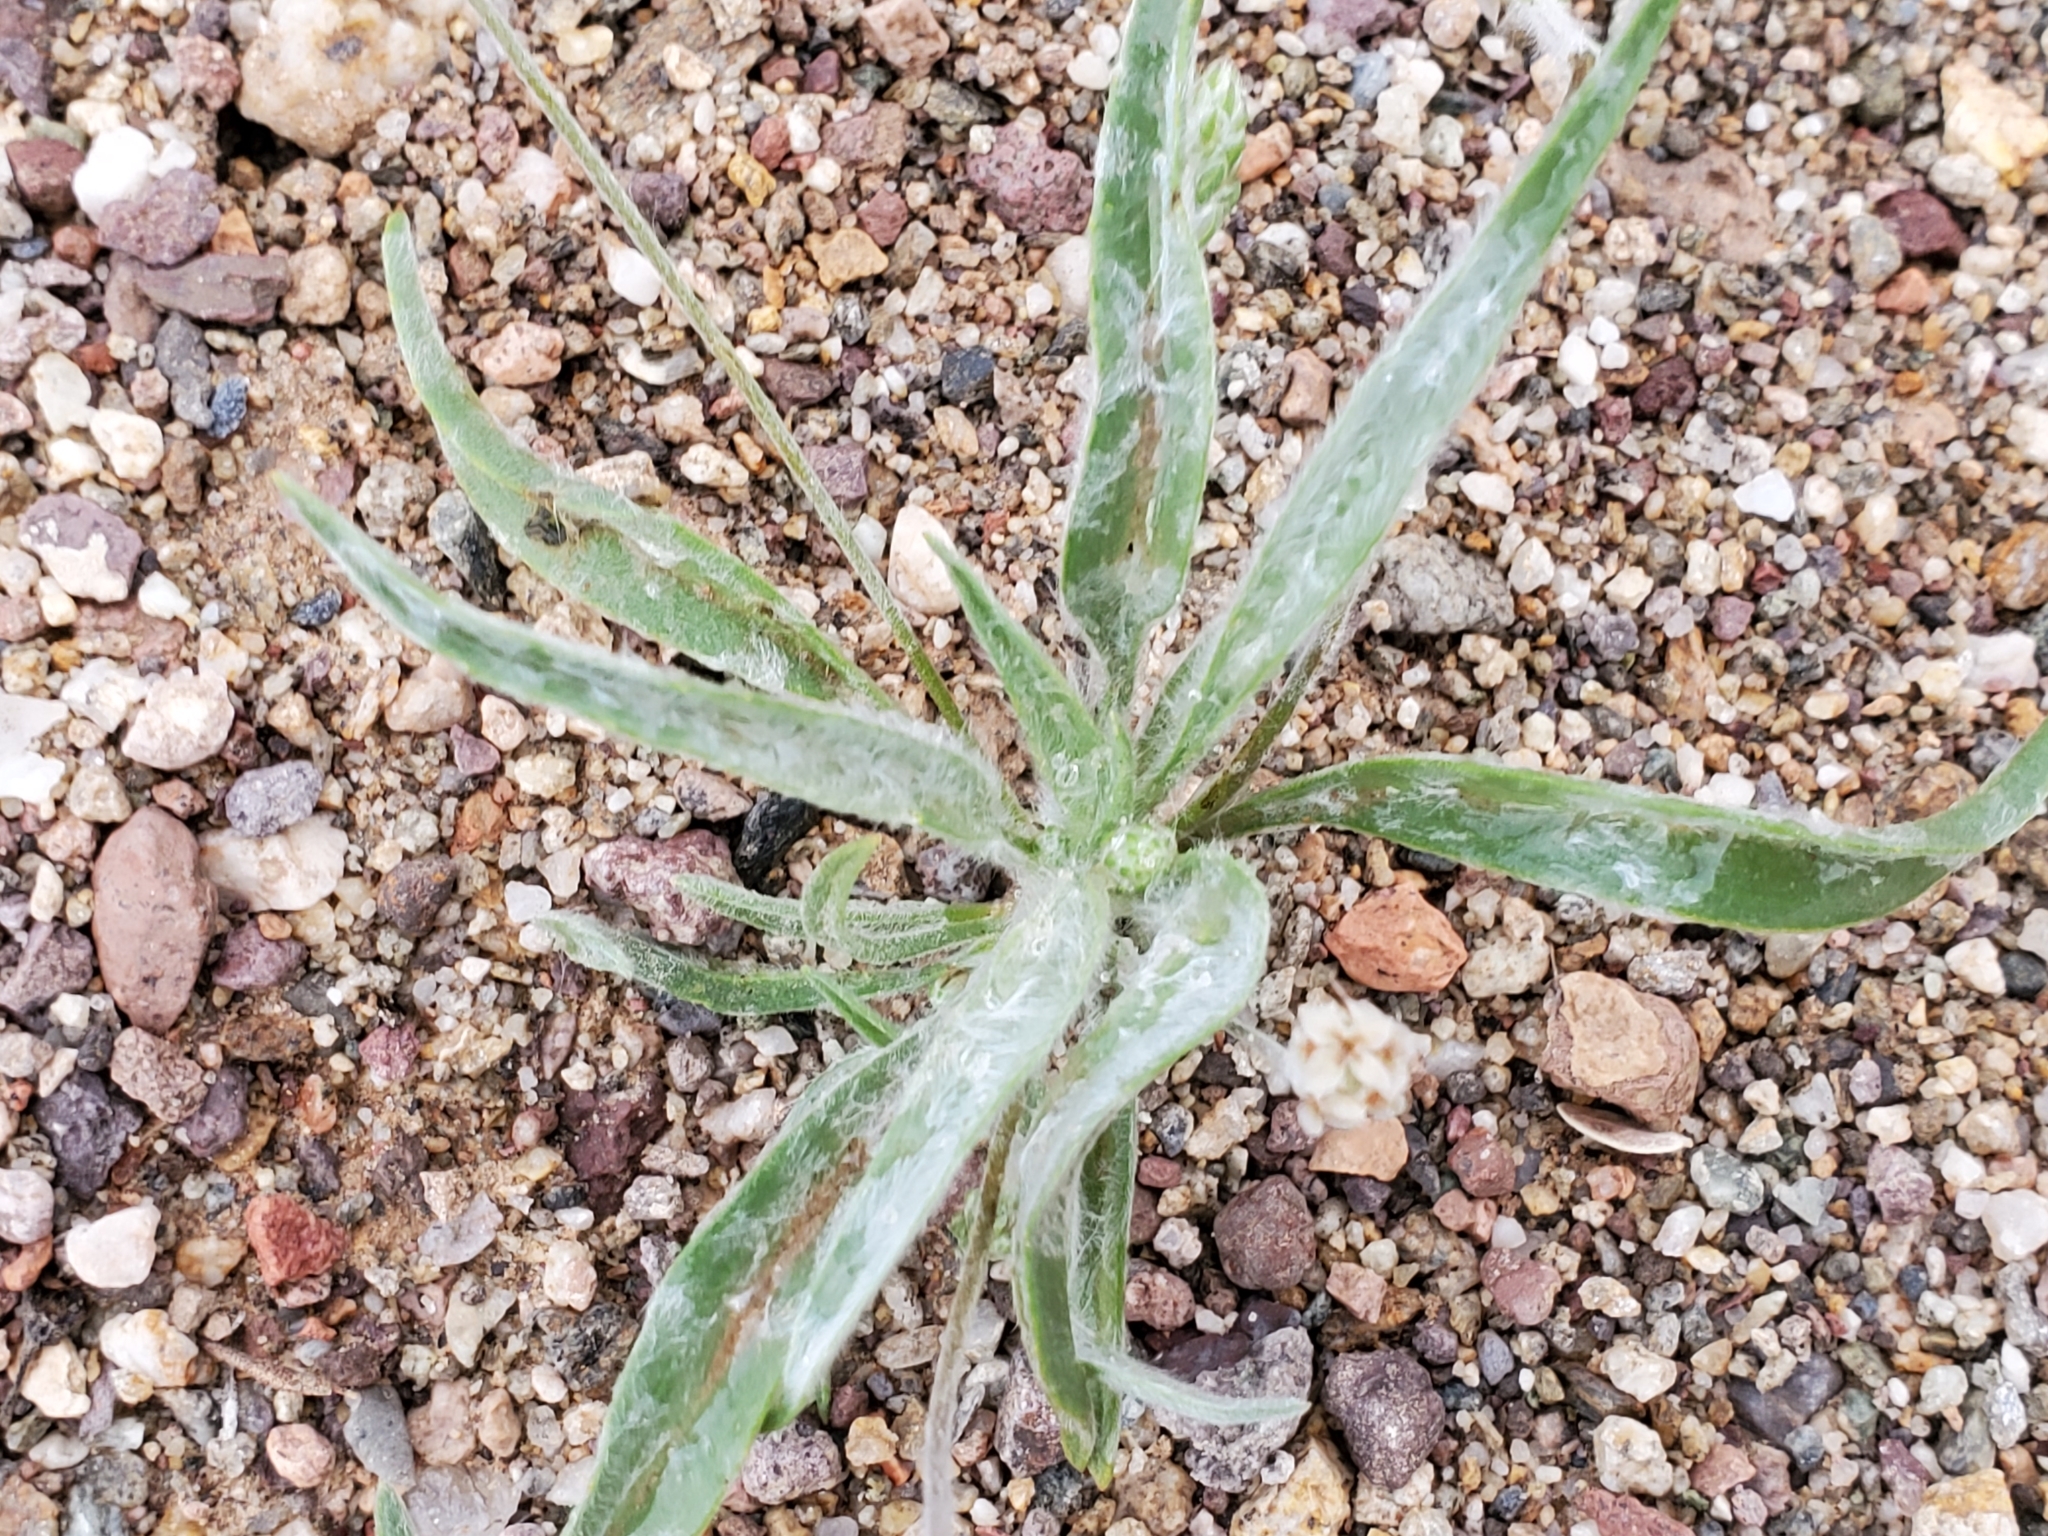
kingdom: Plantae
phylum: Tracheophyta
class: Magnoliopsida
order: Lamiales
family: Plantaginaceae
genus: Plantago
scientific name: Plantago ovata
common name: Blond plantain
